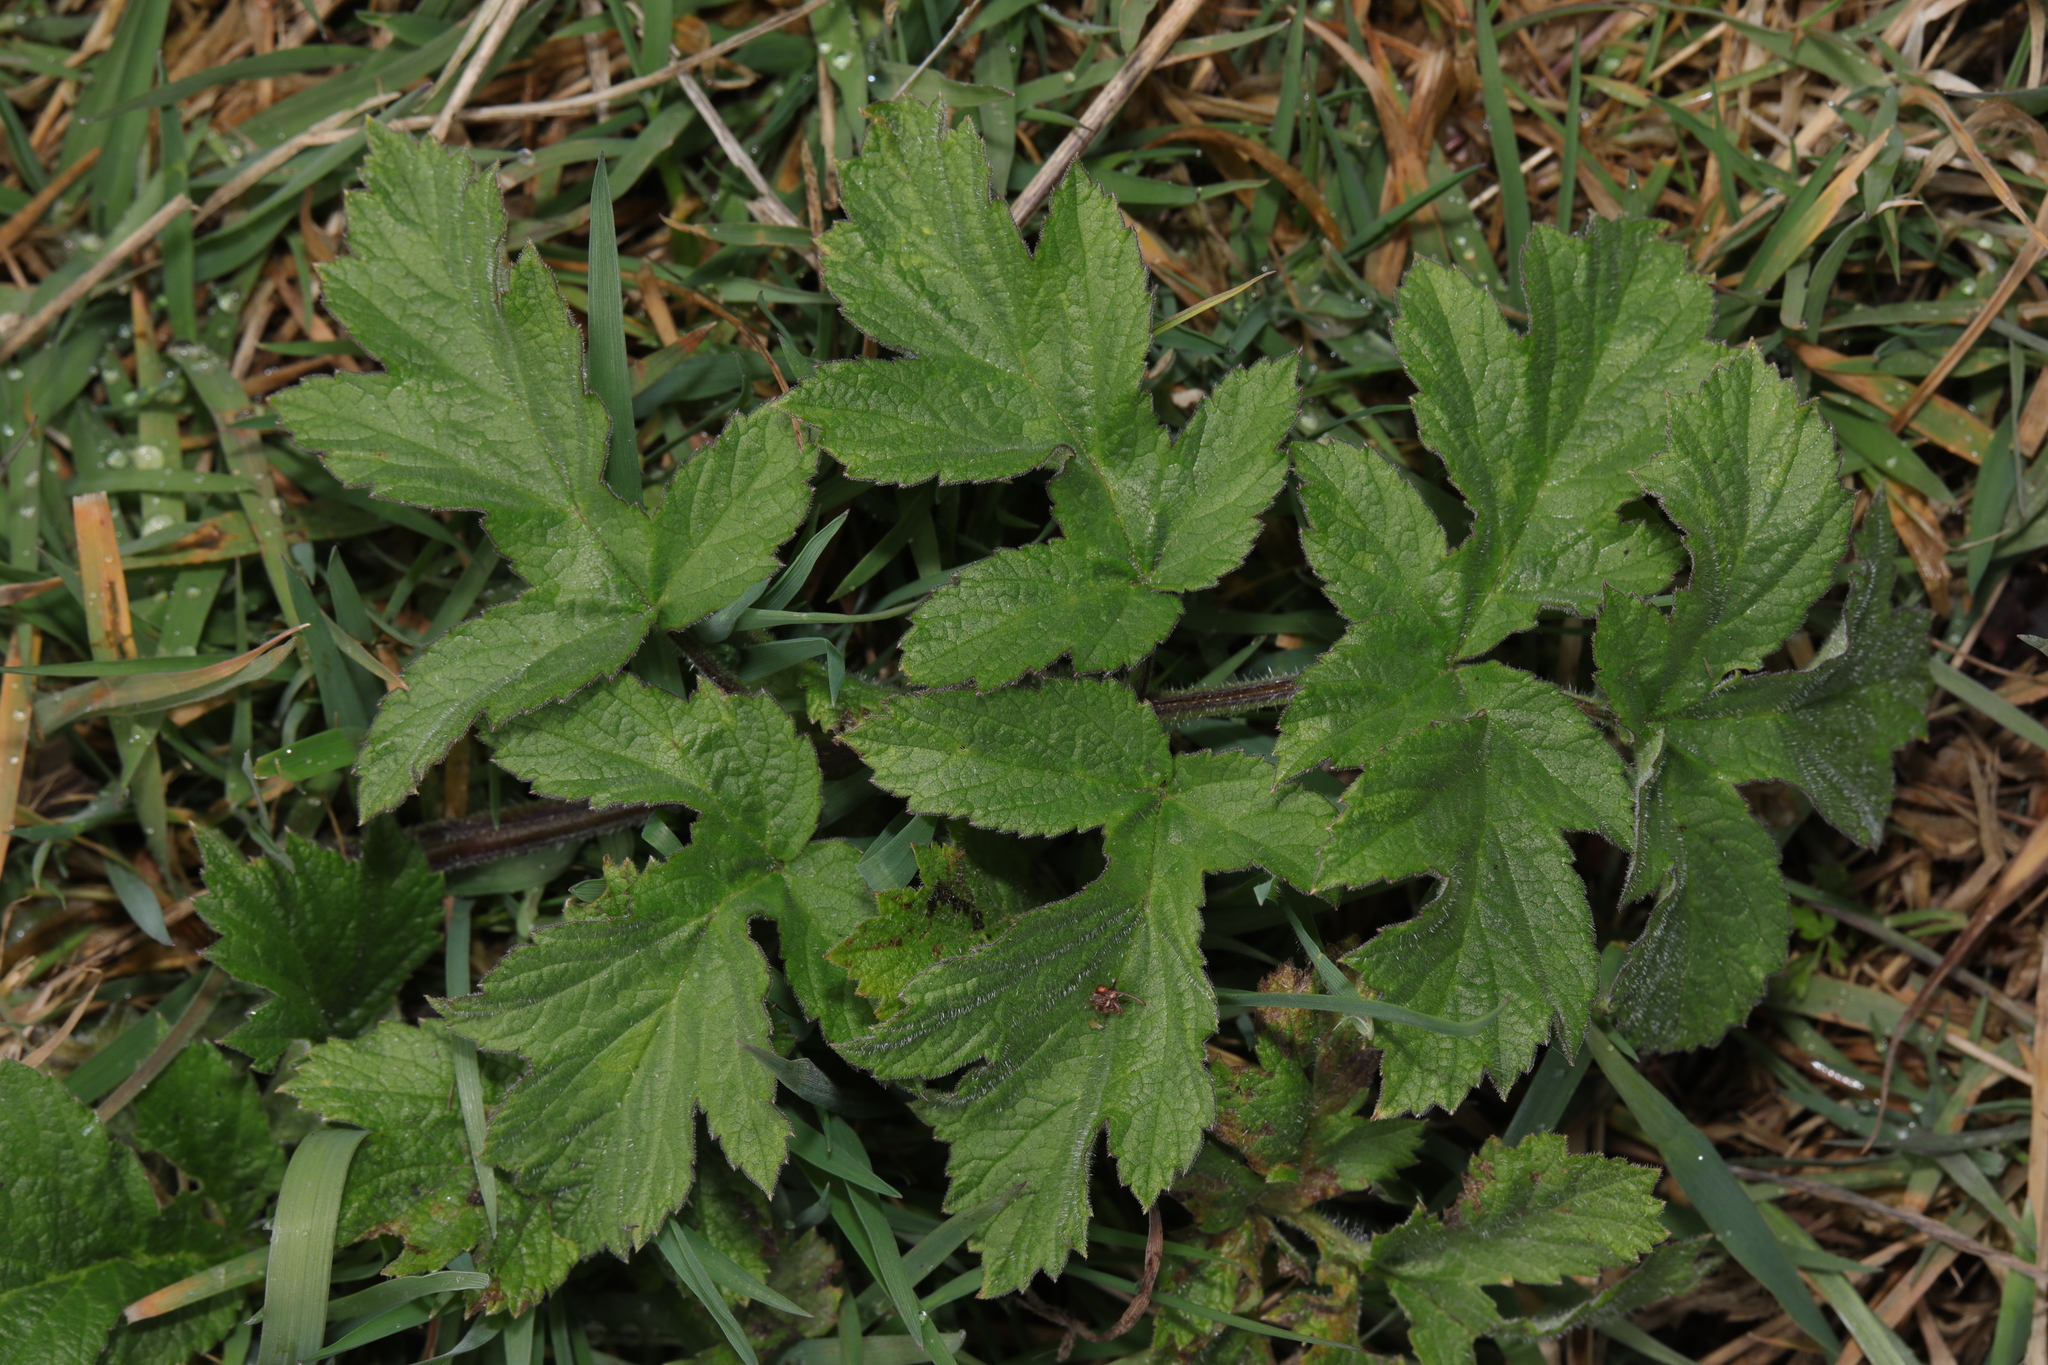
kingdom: Plantae
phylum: Tracheophyta
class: Magnoliopsida
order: Apiales
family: Apiaceae
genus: Heracleum
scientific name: Heracleum sphondylium
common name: Hogweed
